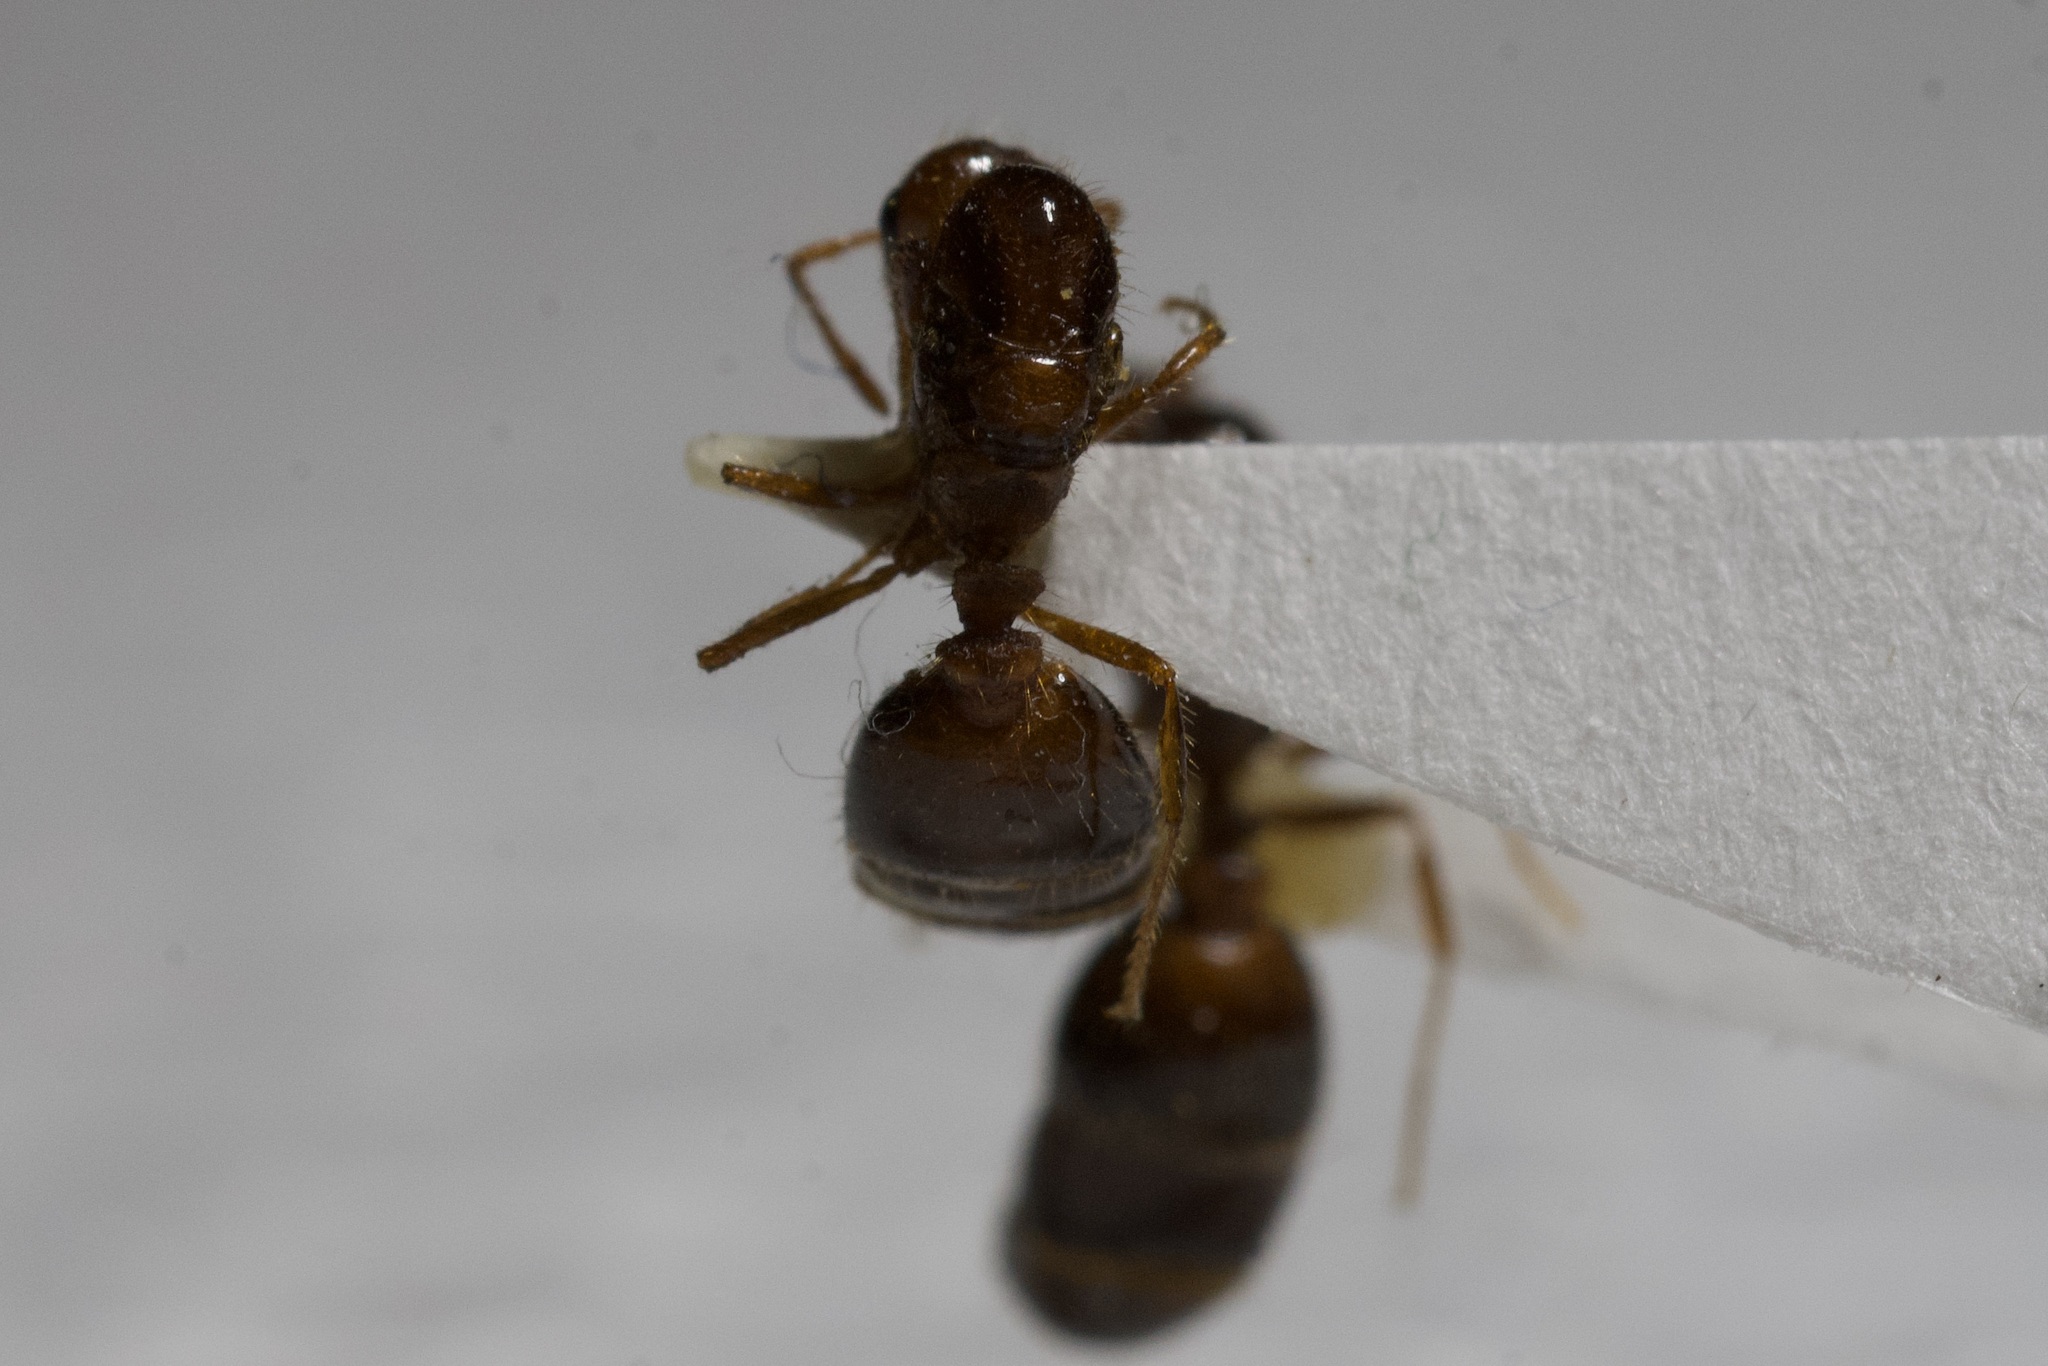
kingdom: Animalia
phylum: Arthropoda
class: Insecta
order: Hymenoptera
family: Formicidae
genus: Solenopsis
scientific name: Solenopsis invicta
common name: Red imported fire ant
